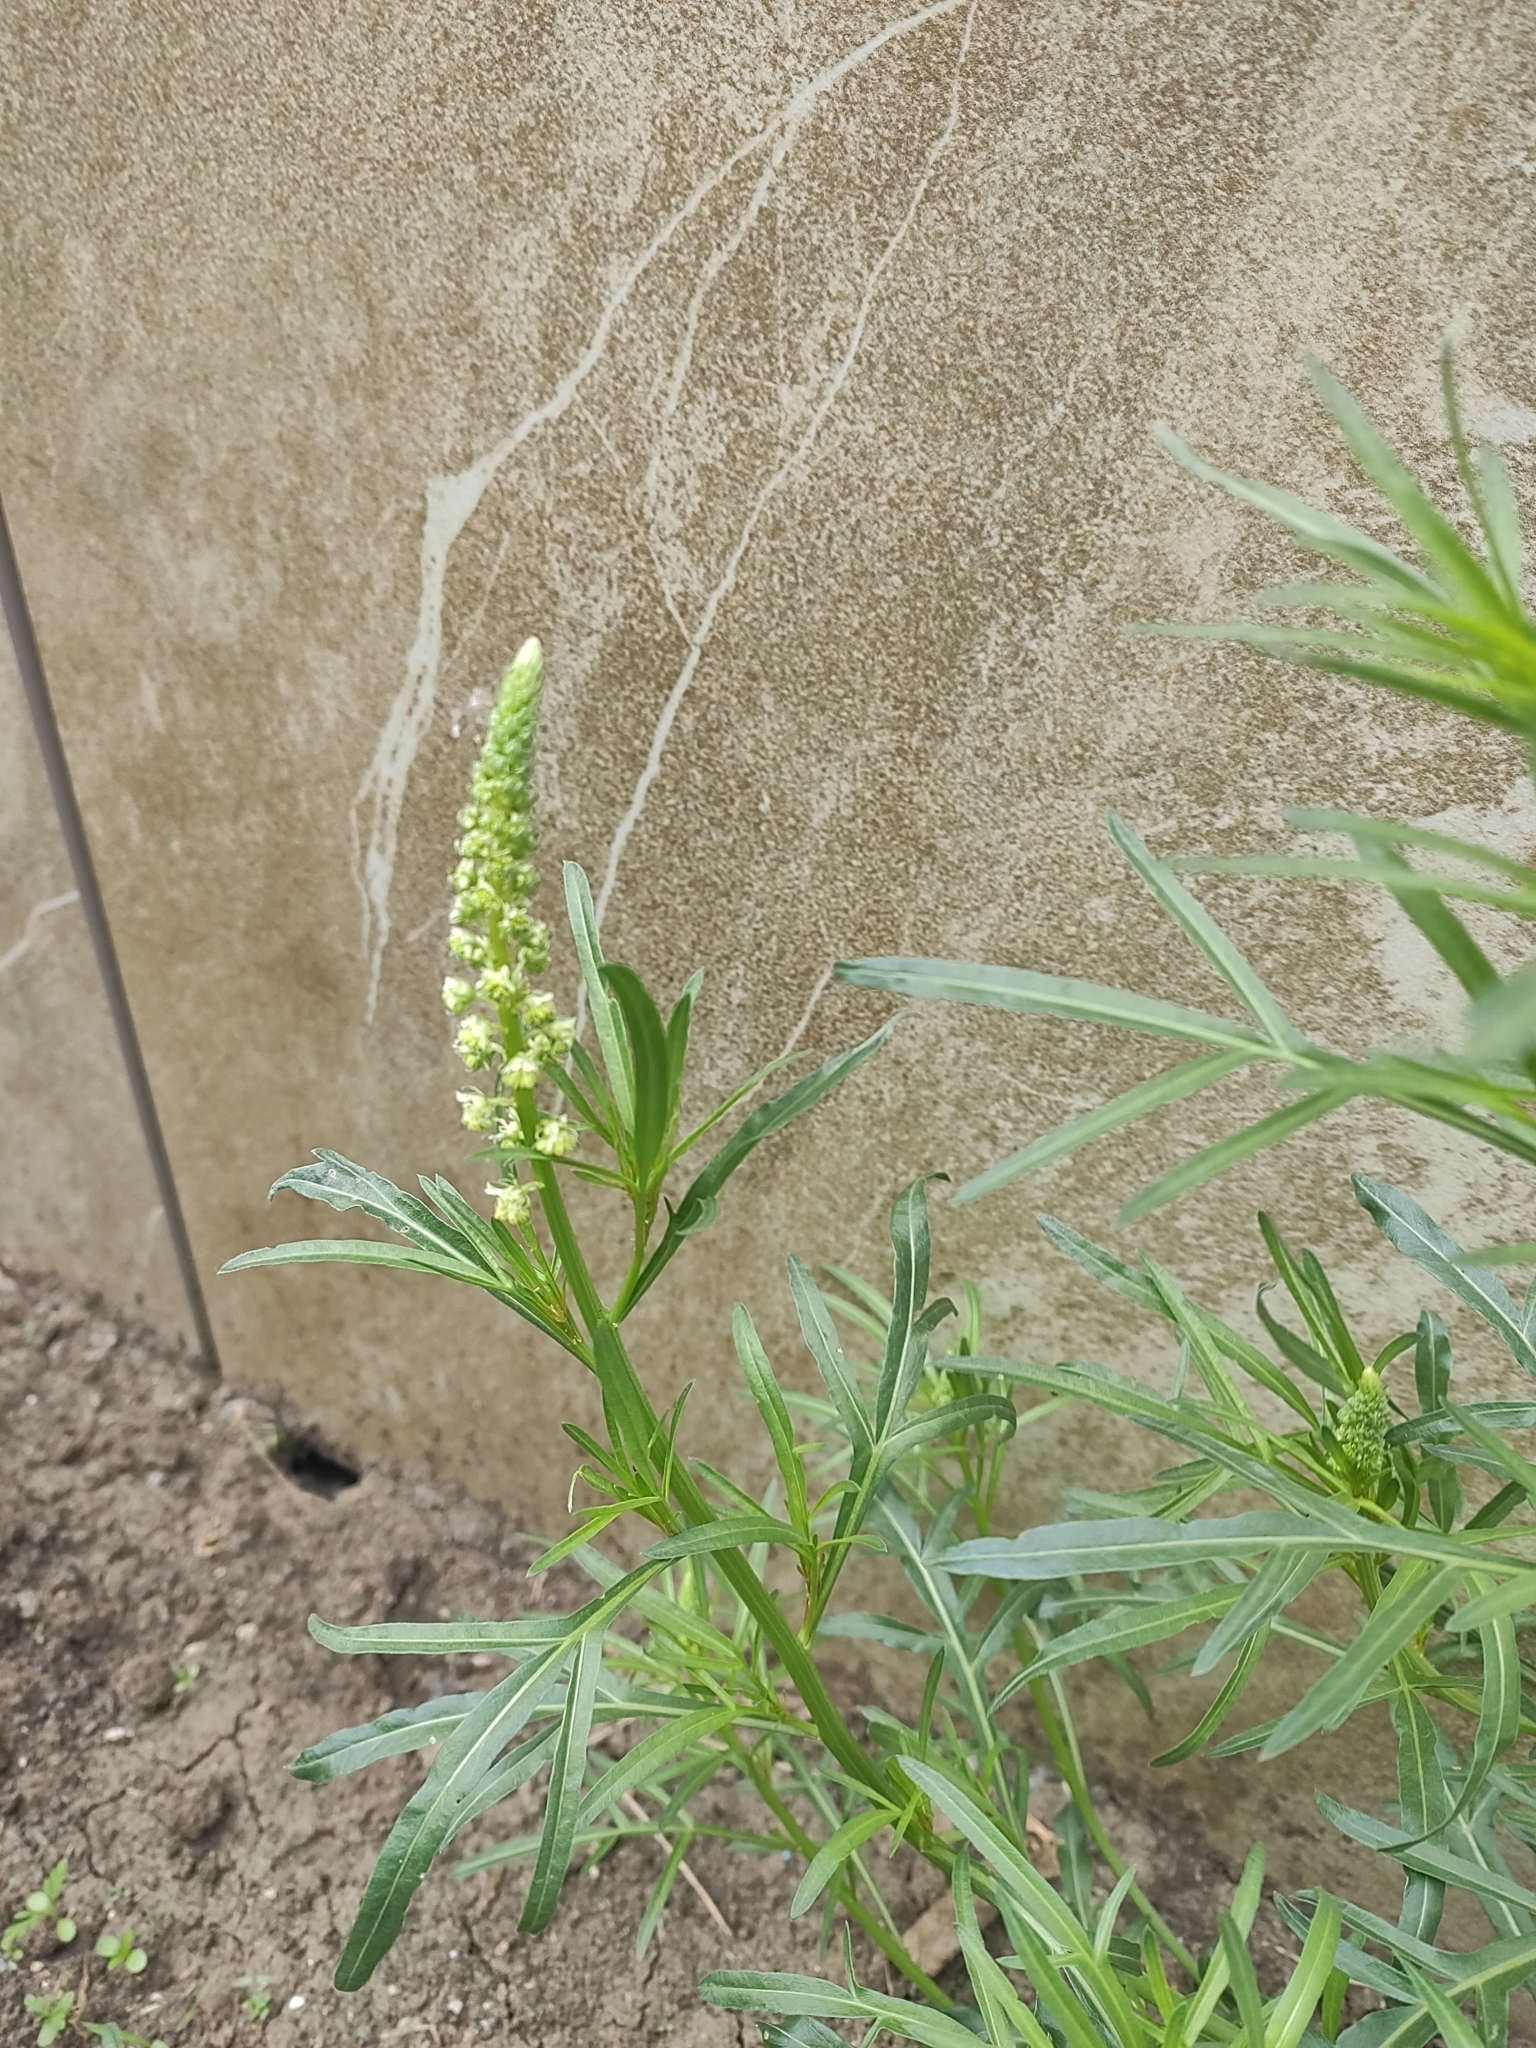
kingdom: Plantae
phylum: Tracheophyta
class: Magnoliopsida
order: Brassicales
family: Resedaceae
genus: Reseda
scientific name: Reseda lutea
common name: Wild mignonette
